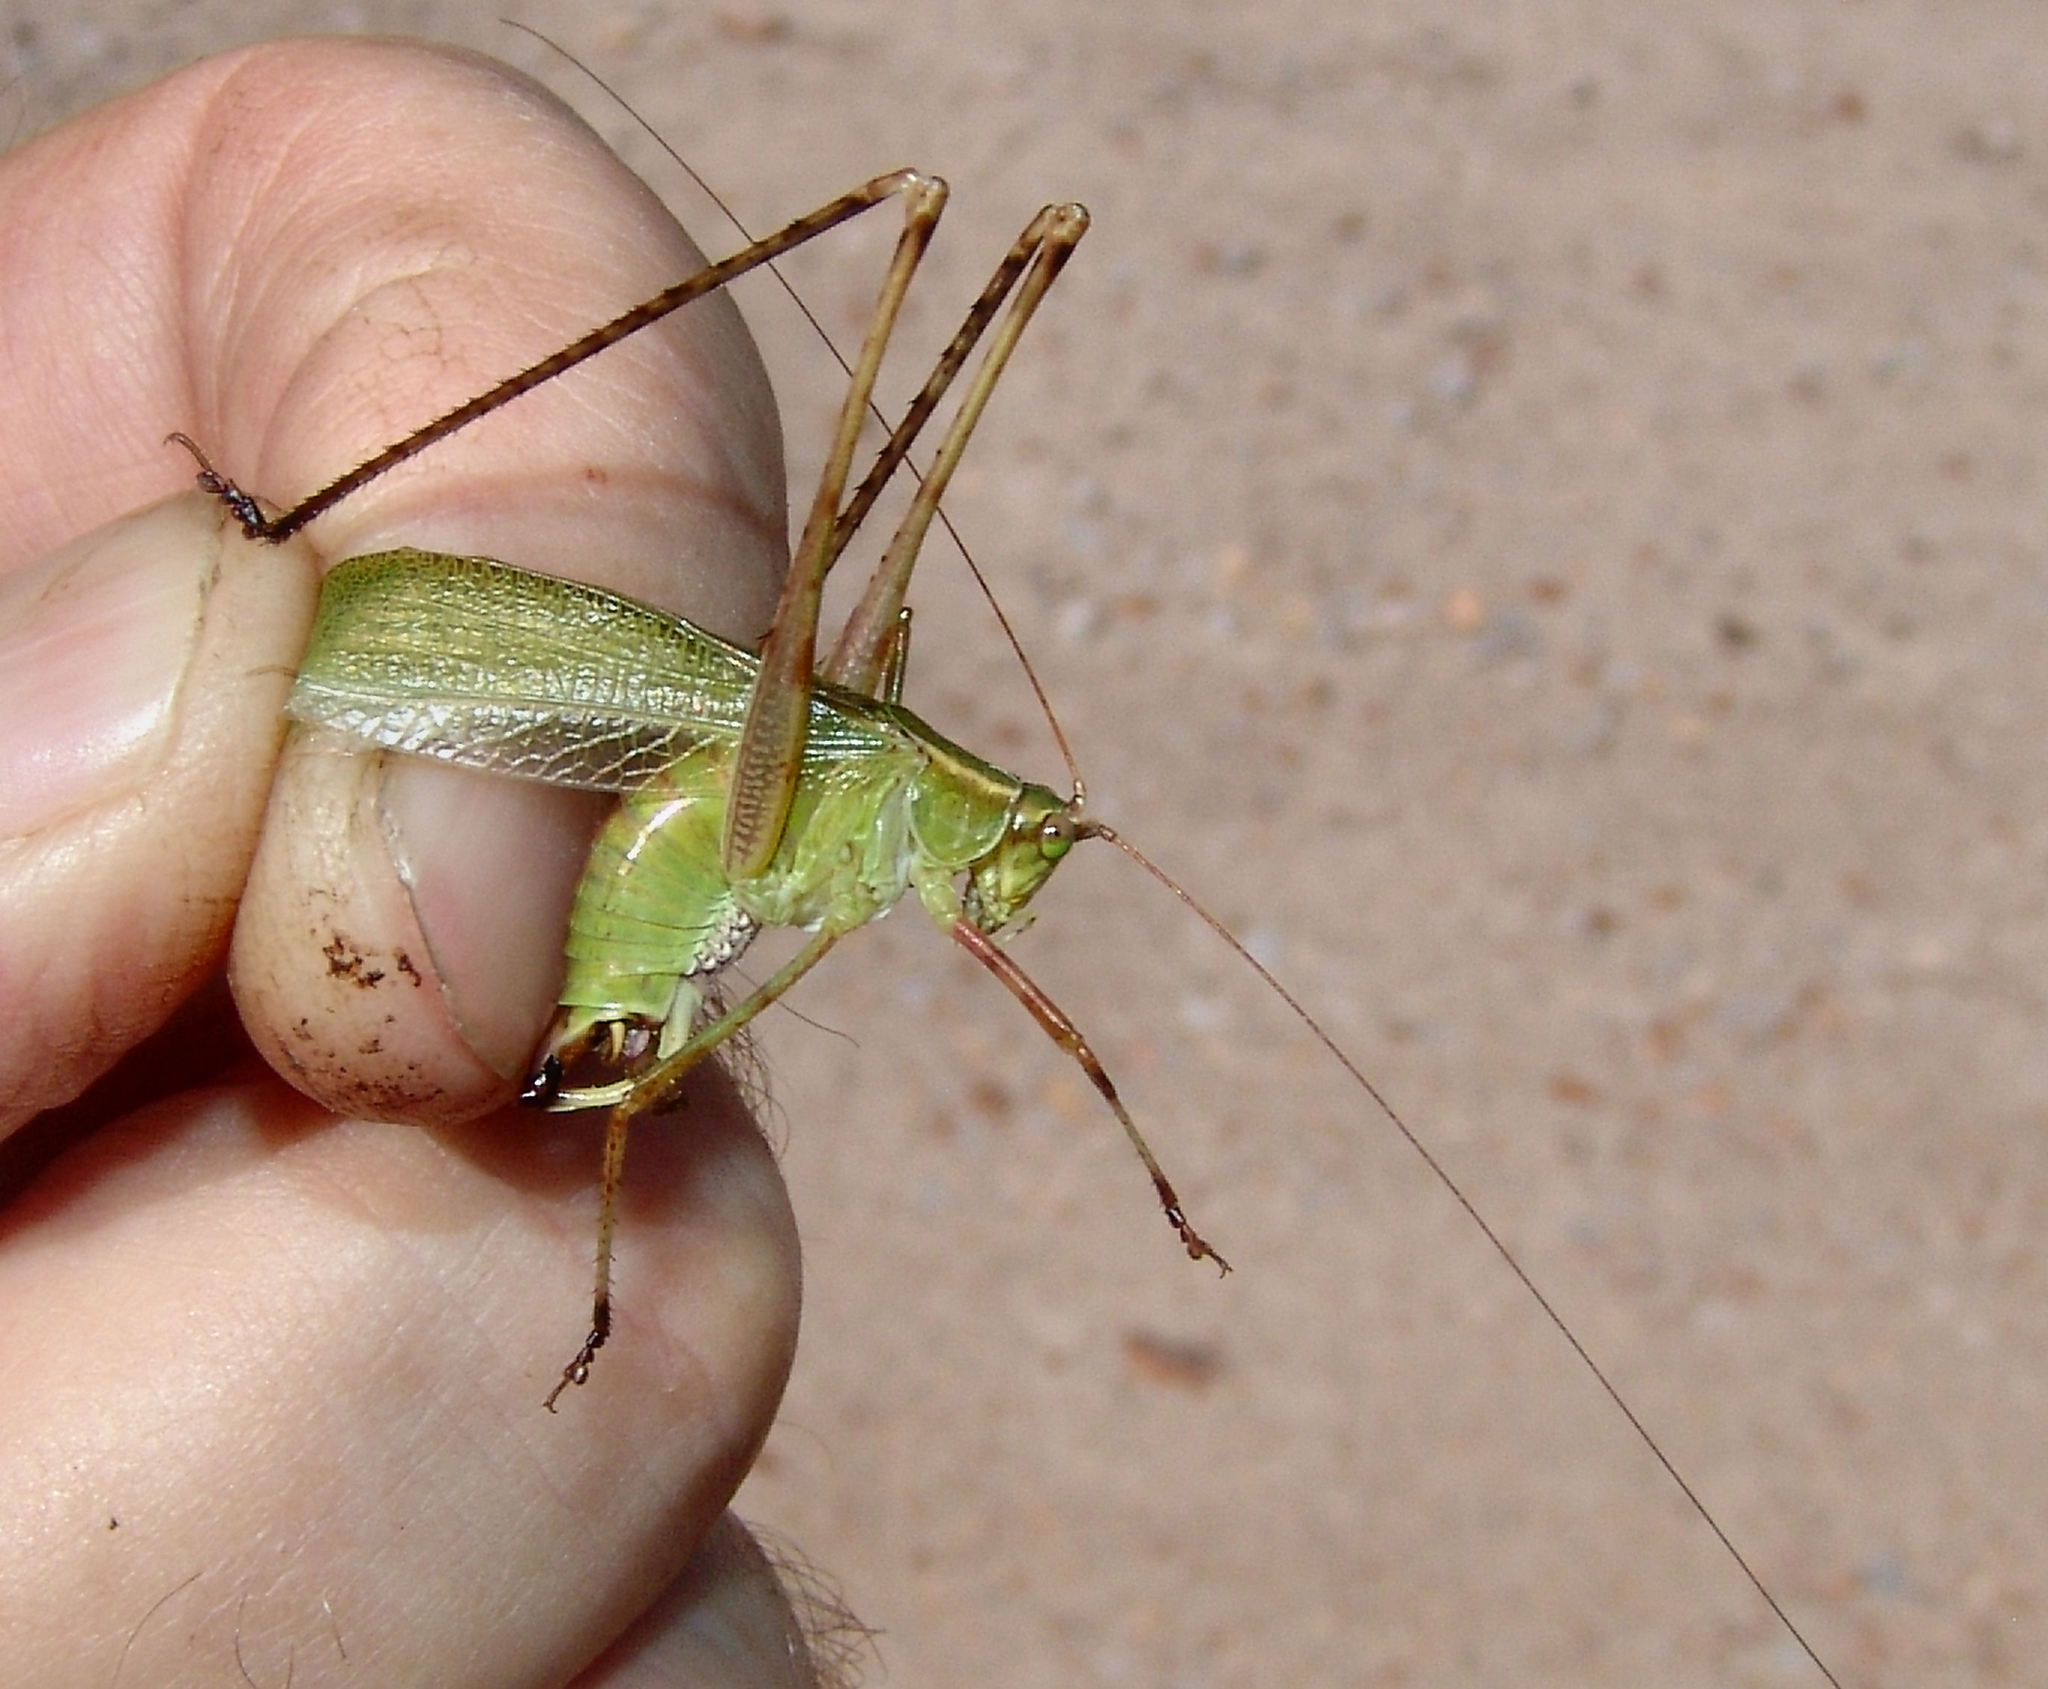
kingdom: Animalia
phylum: Arthropoda
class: Insecta
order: Orthoptera
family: Tettigoniidae
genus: Scudderia
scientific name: Scudderia furcata
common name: Fork-tailed bush katydid
